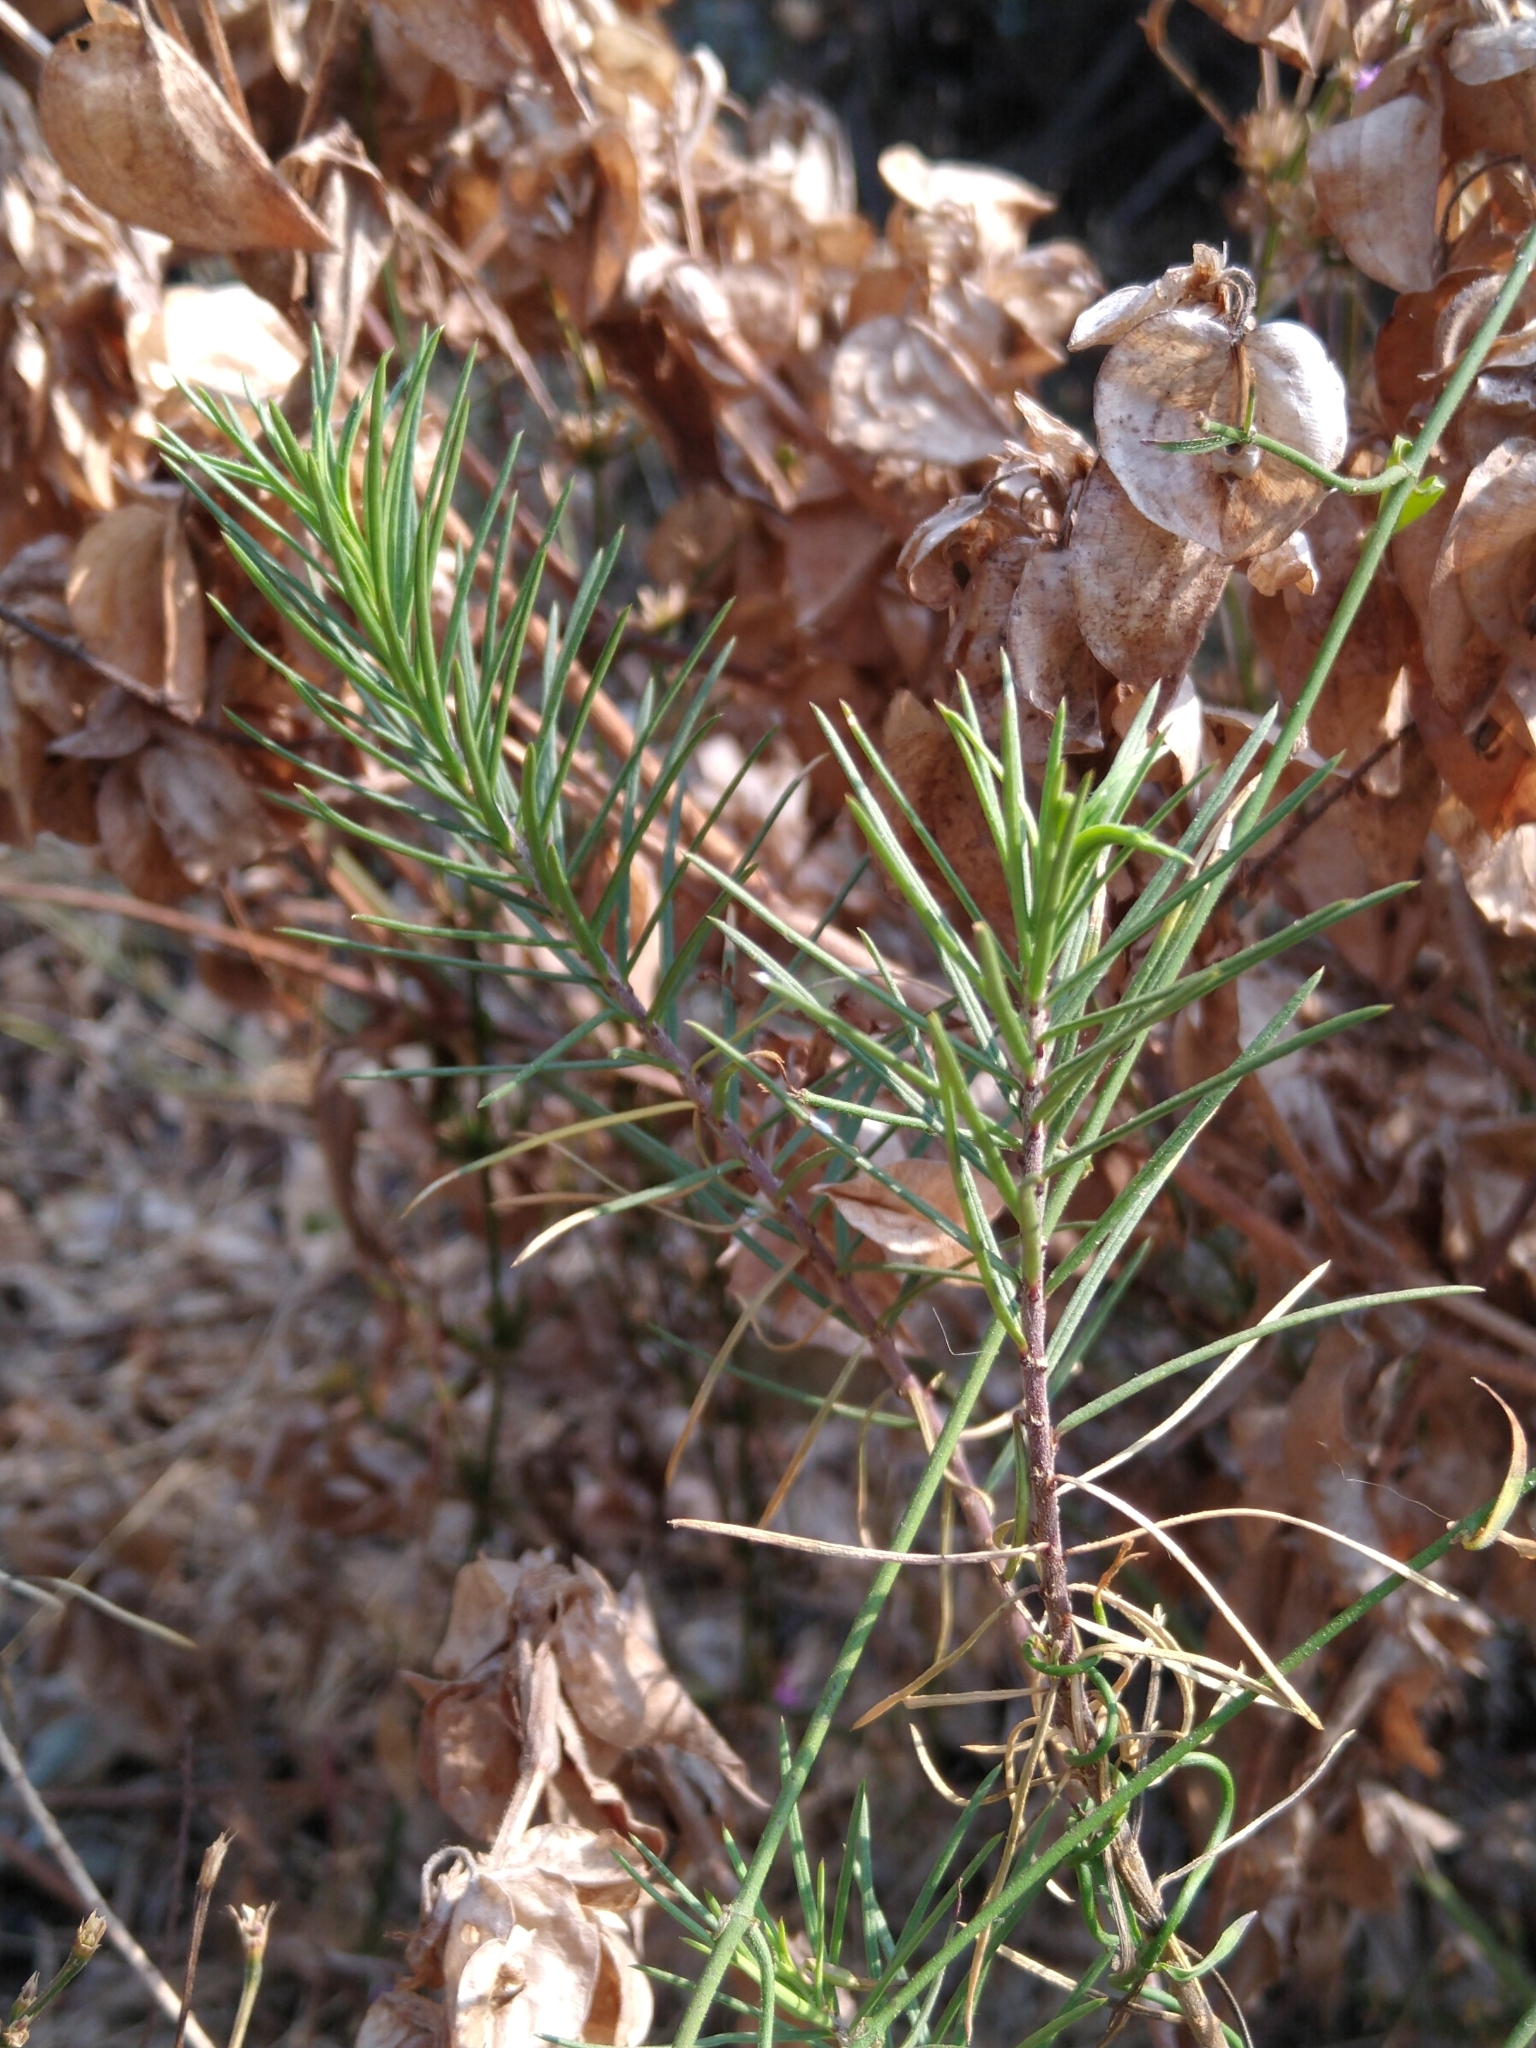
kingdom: Plantae
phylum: Tracheophyta
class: Magnoliopsida
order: Gentianales
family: Apocynaceae
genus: Asclepias
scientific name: Asclepias linaria
